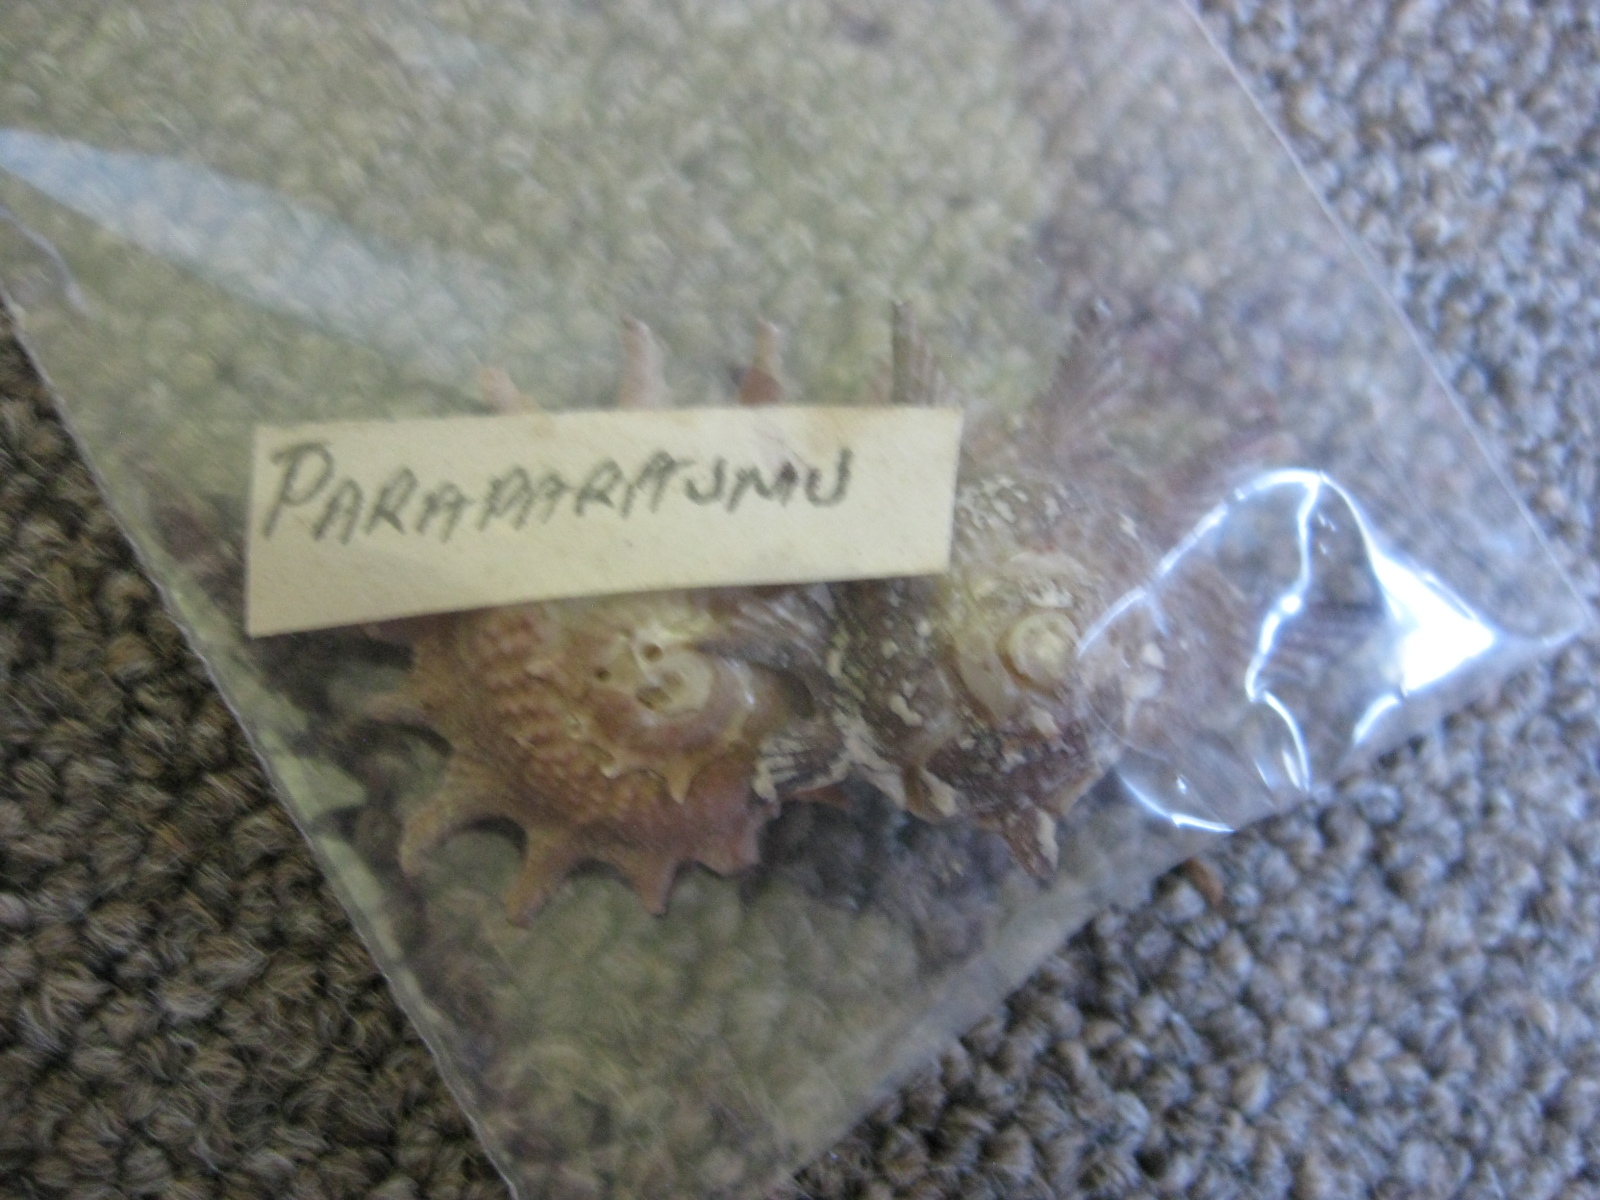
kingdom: Animalia
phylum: Mollusca
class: Gastropoda
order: Trochida
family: Turbinidae
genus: Astraea
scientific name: Astraea heliotropium
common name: Sun shell
